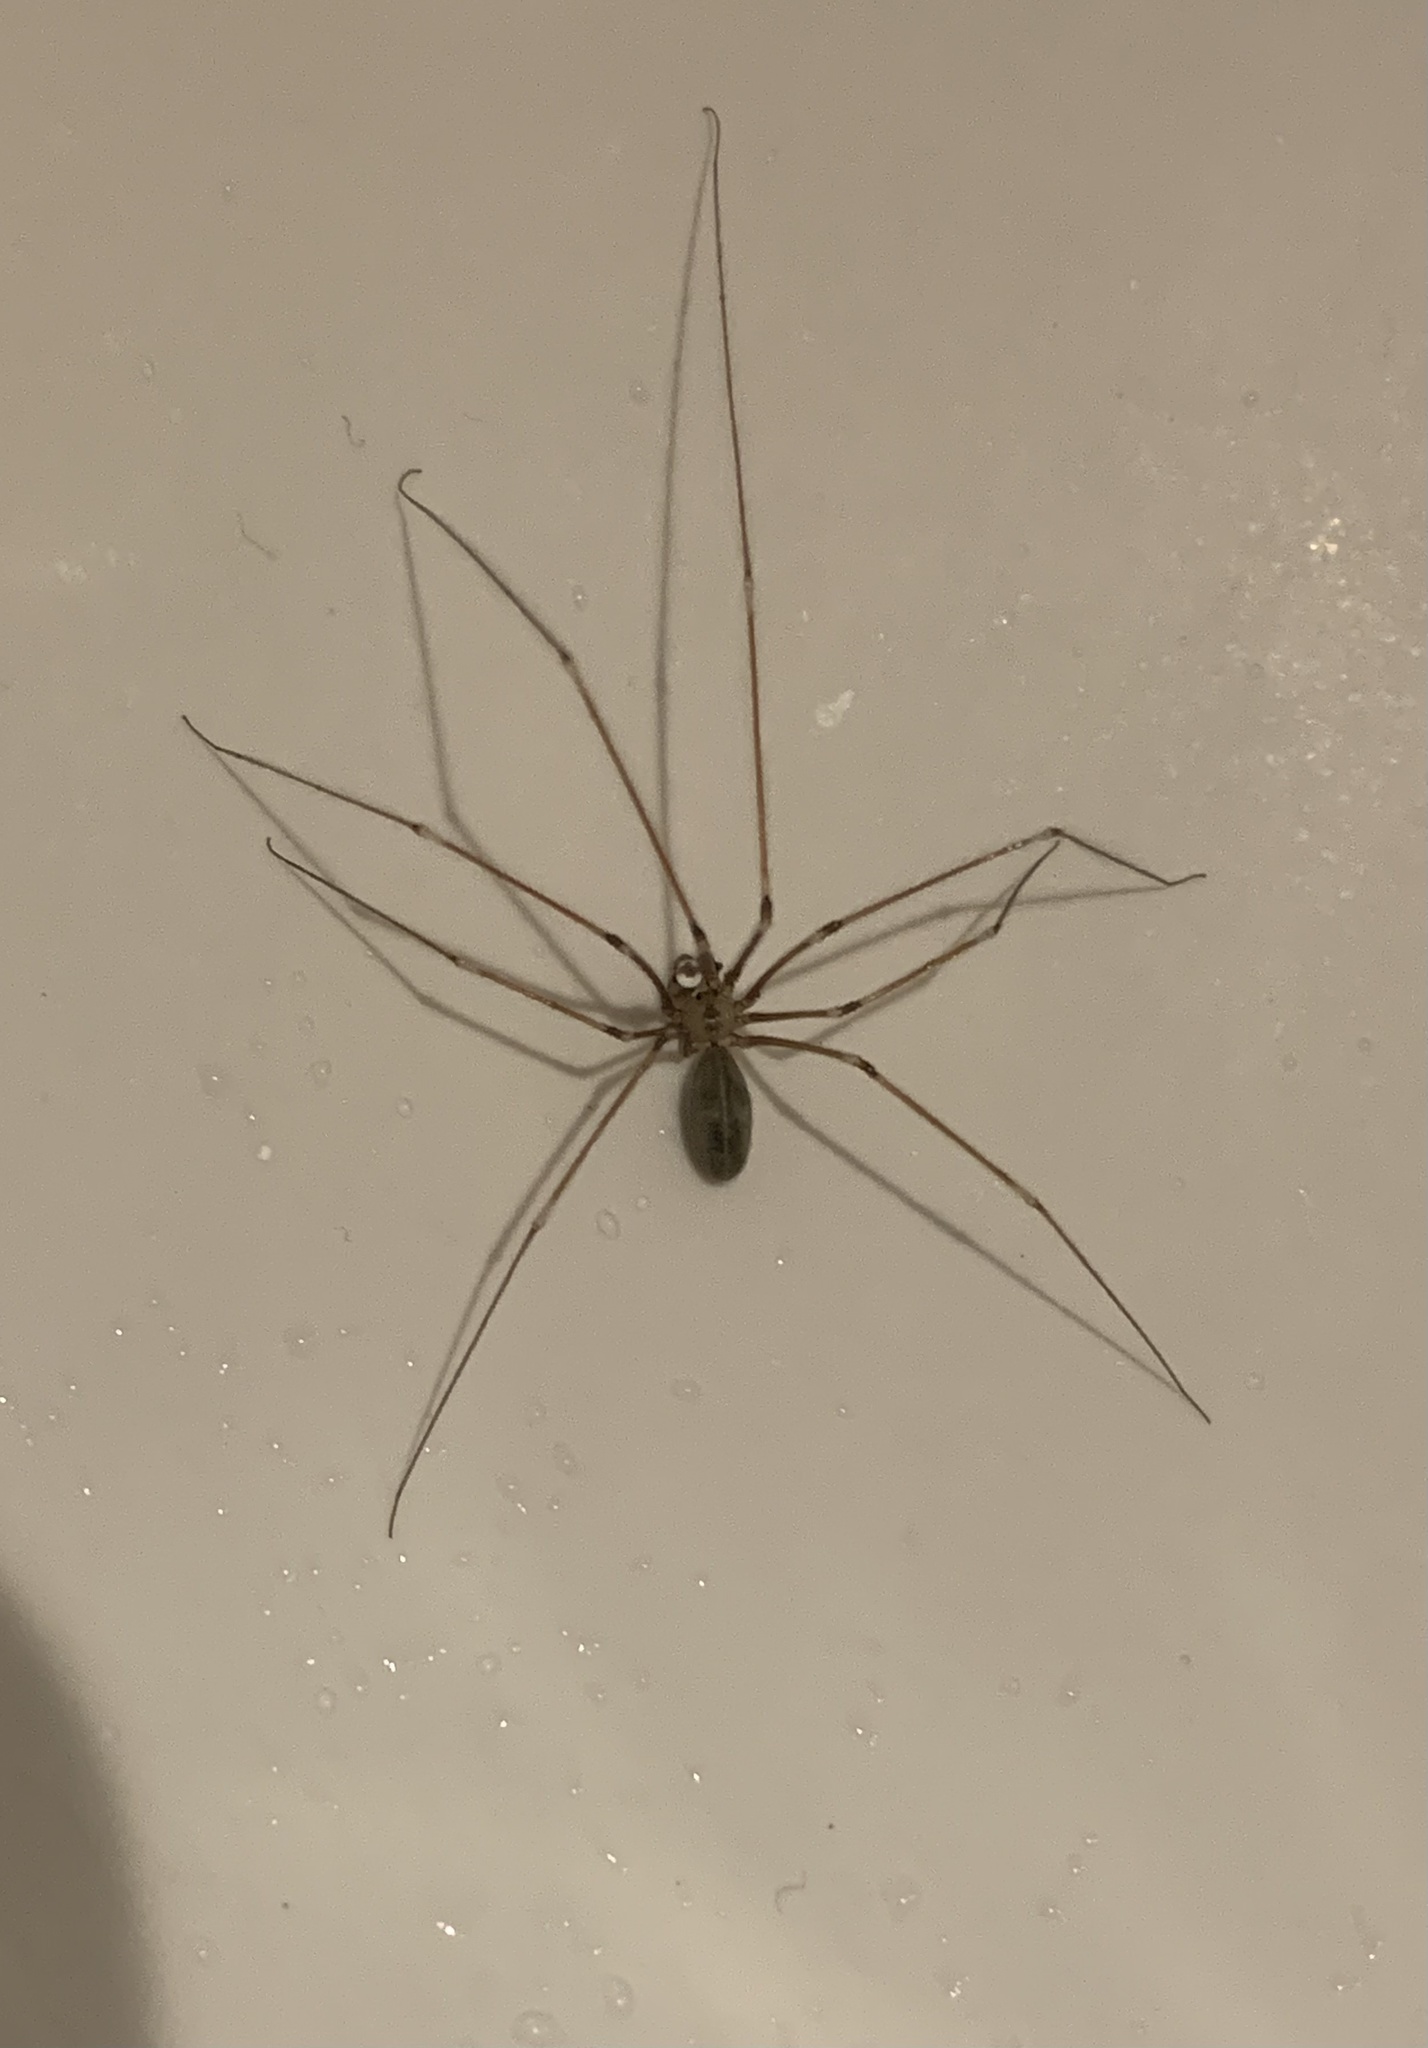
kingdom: Animalia
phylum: Arthropoda
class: Arachnida
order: Araneae
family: Pholcidae
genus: Pholcus
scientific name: Pholcus phalangioides
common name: Longbodied cellar spider
